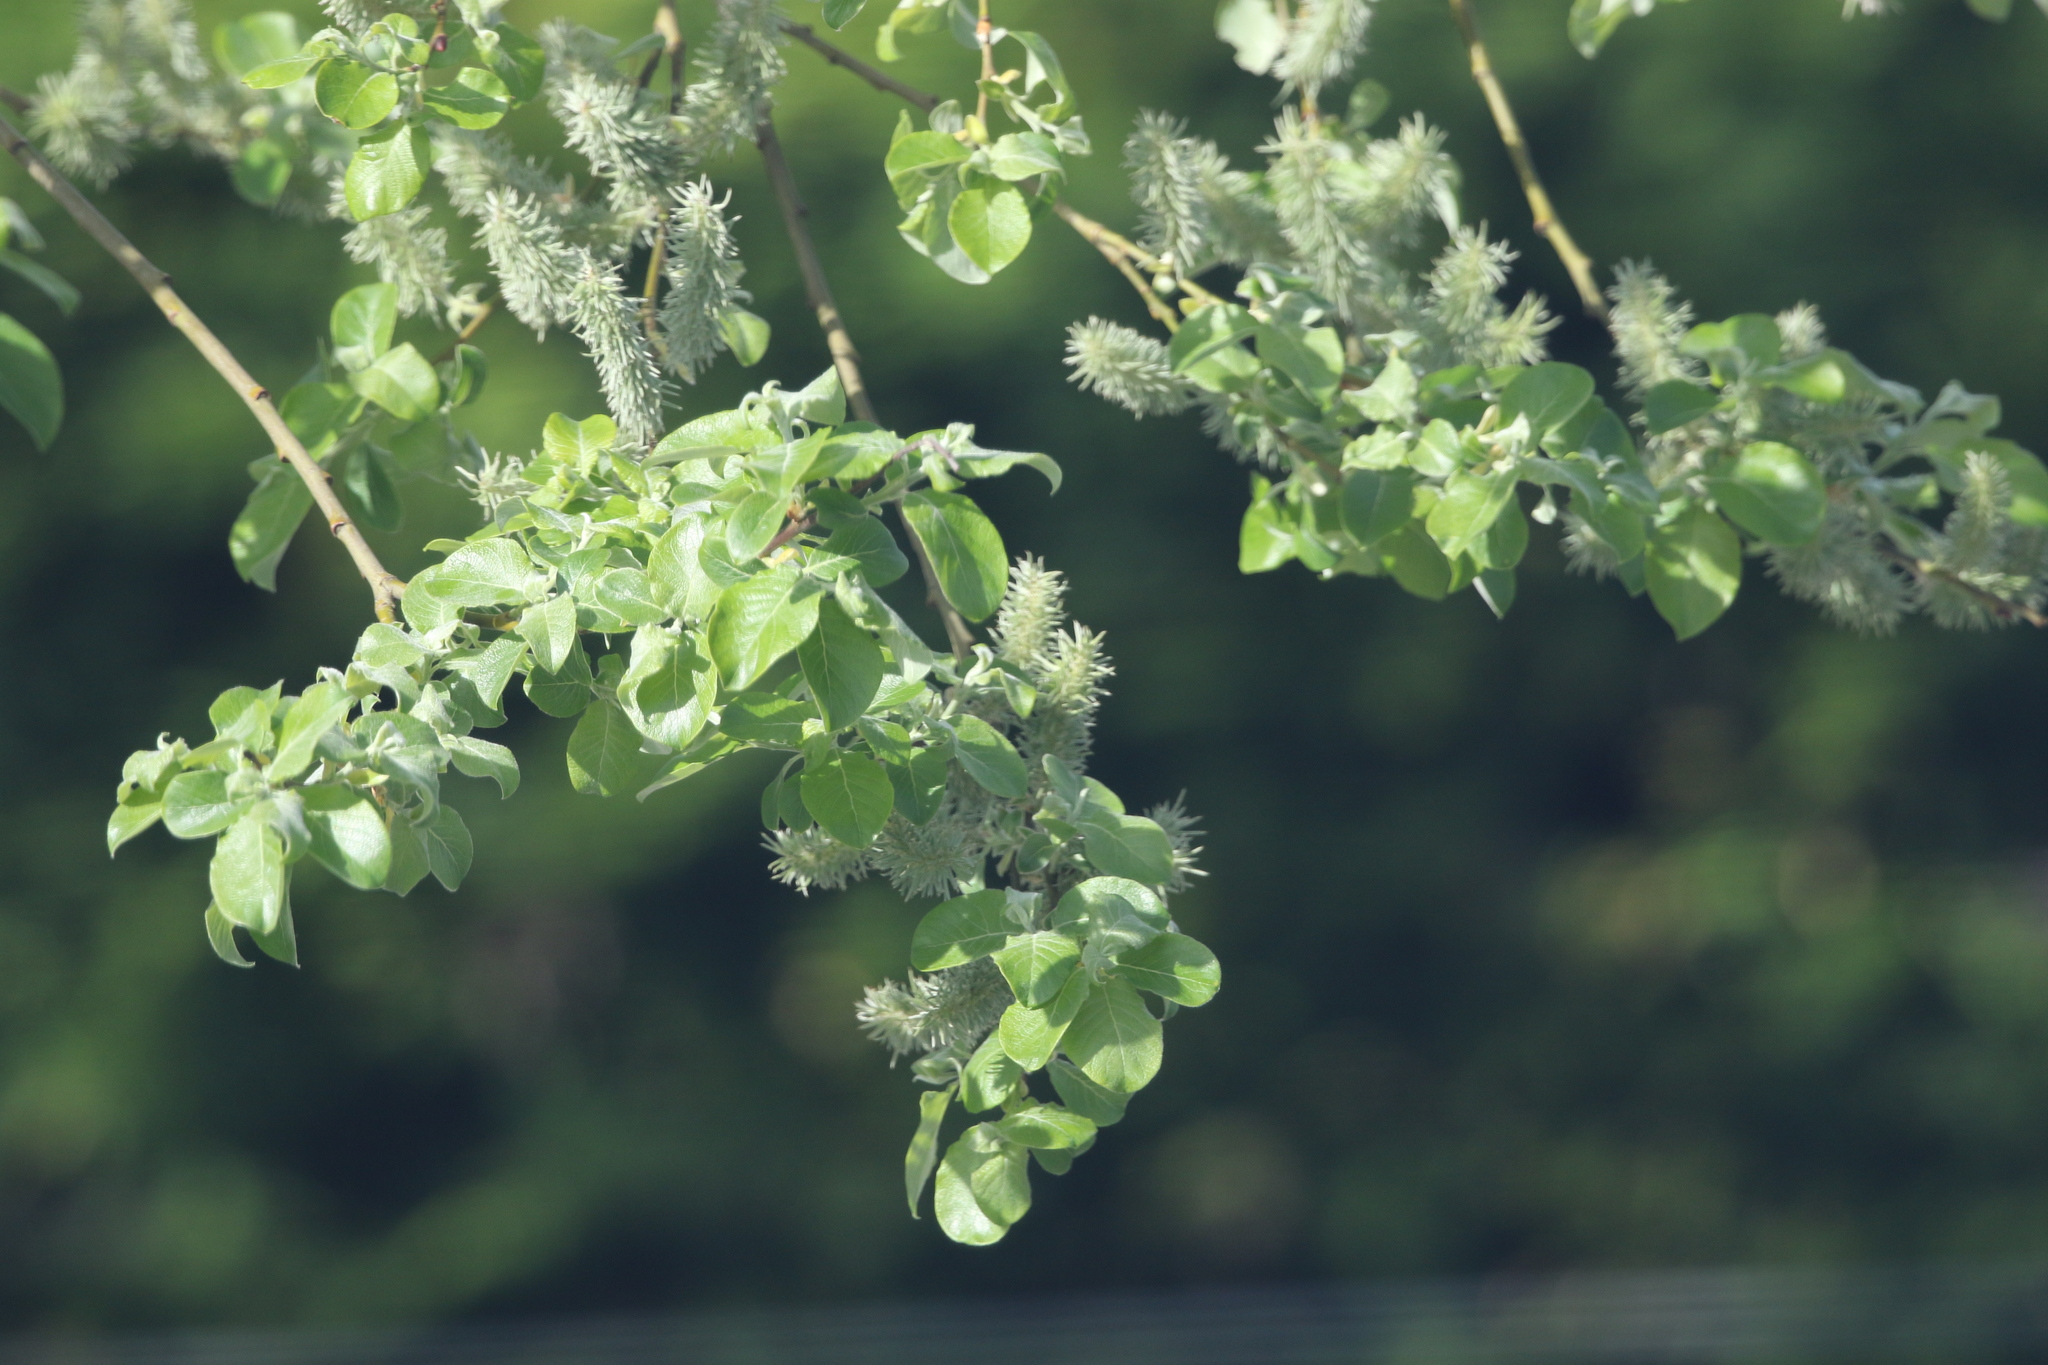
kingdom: Plantae
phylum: Tracheophyta
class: Magnoliopsida
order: Malpighiales
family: Salicaceae
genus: Salix
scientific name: Salix caprea
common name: Goat willow
